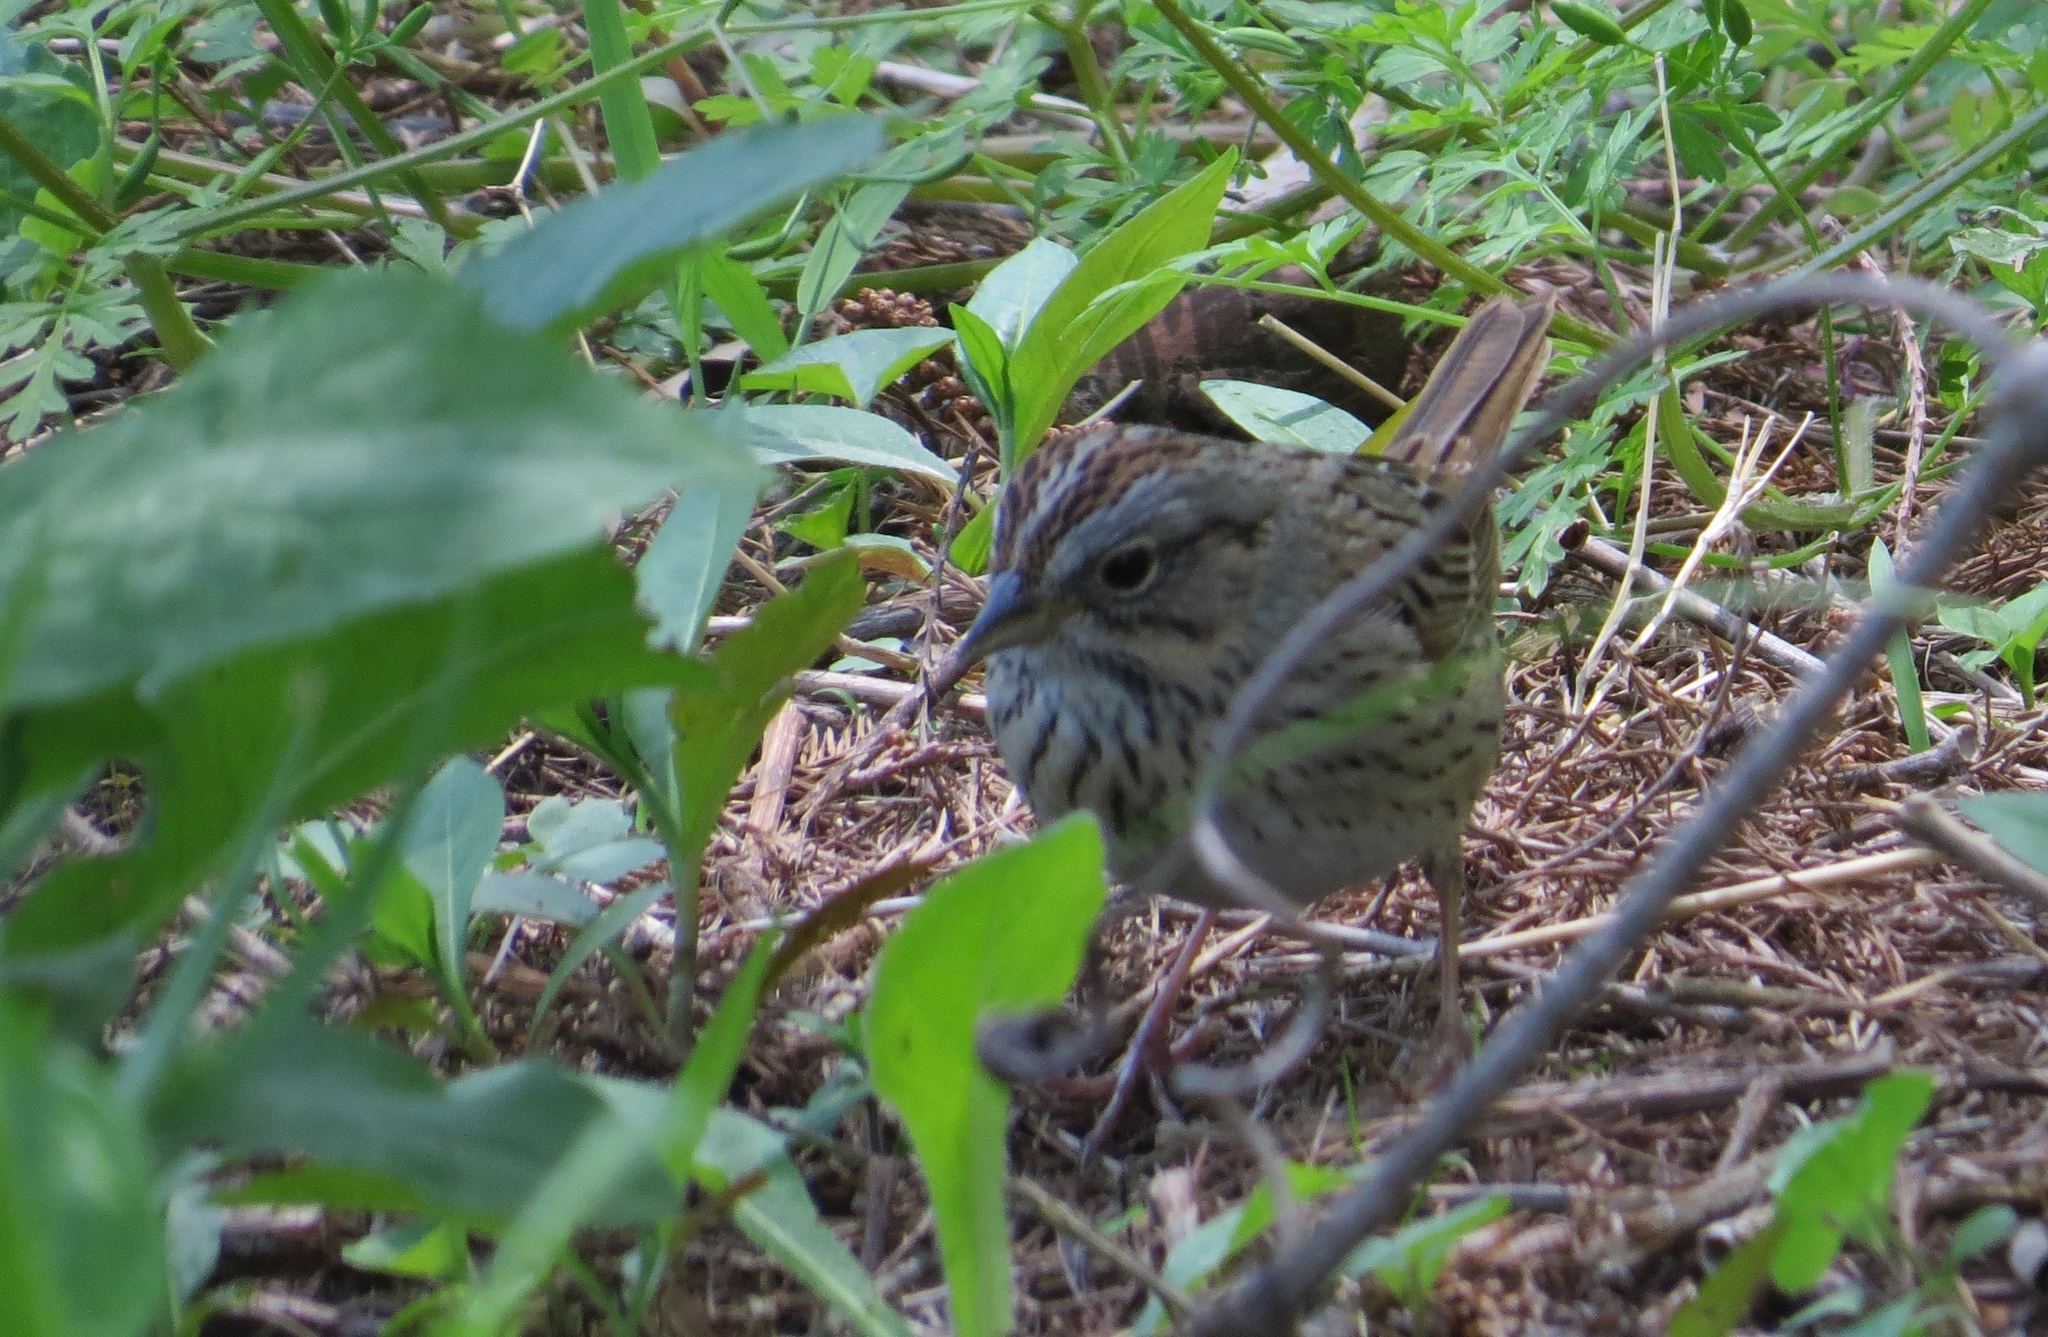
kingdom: Animalia
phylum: Chordata
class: Aves
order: Passeriformes
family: Passerellidae
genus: Melospiza
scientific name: Melospiza lincolnii
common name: Lincoln's sparrow
